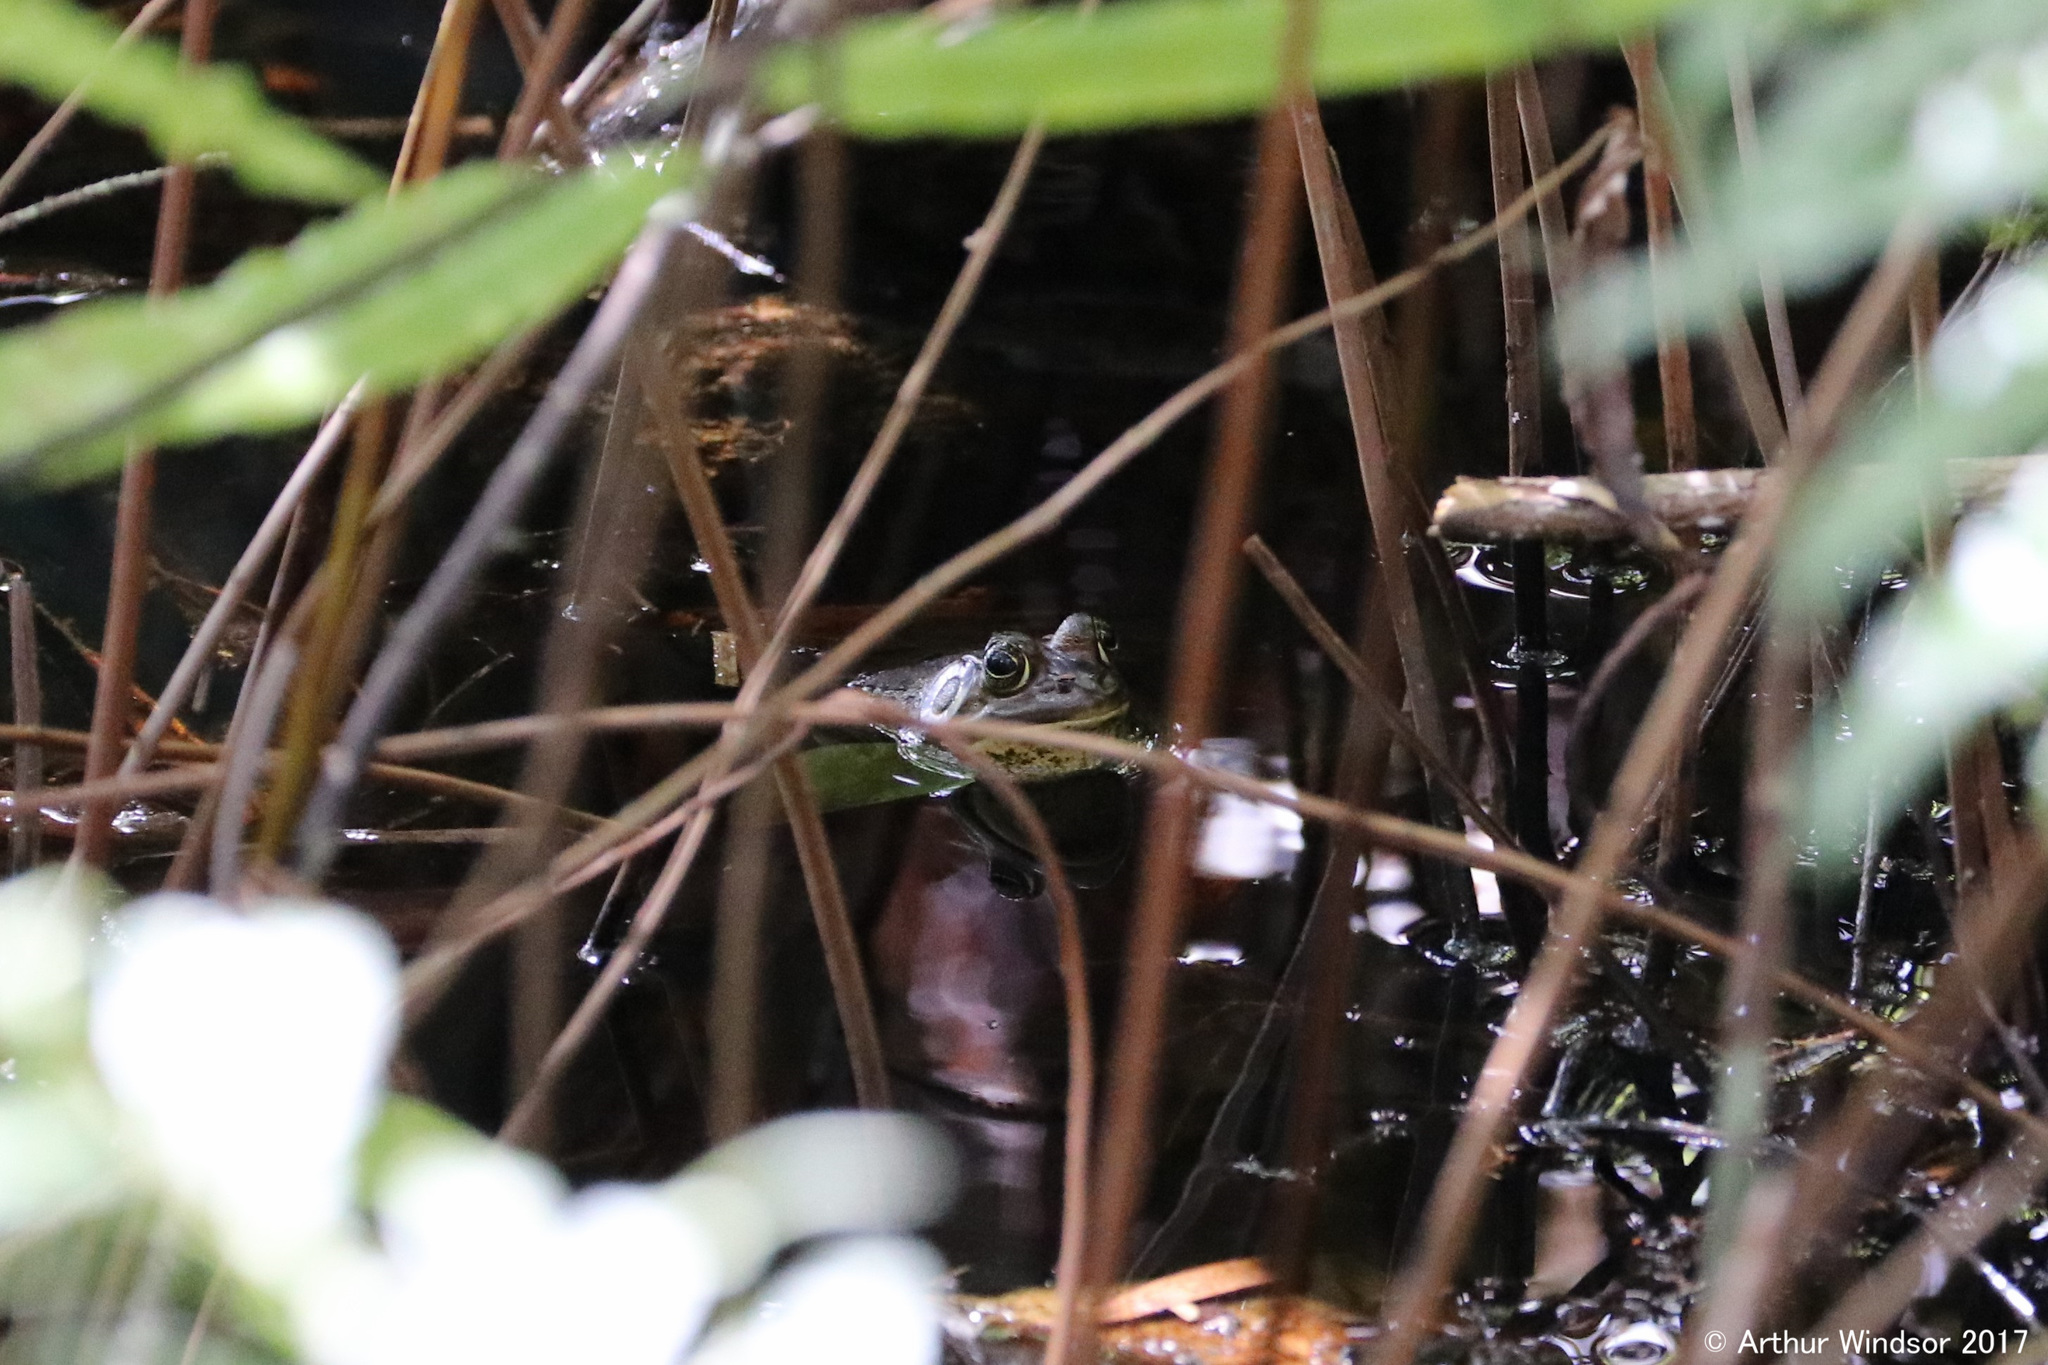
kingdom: Animalia
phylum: Chordata
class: Amphibia
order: Anura
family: Ranidae
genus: Lithobates
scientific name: Lithobates grylio
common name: Pig frog
